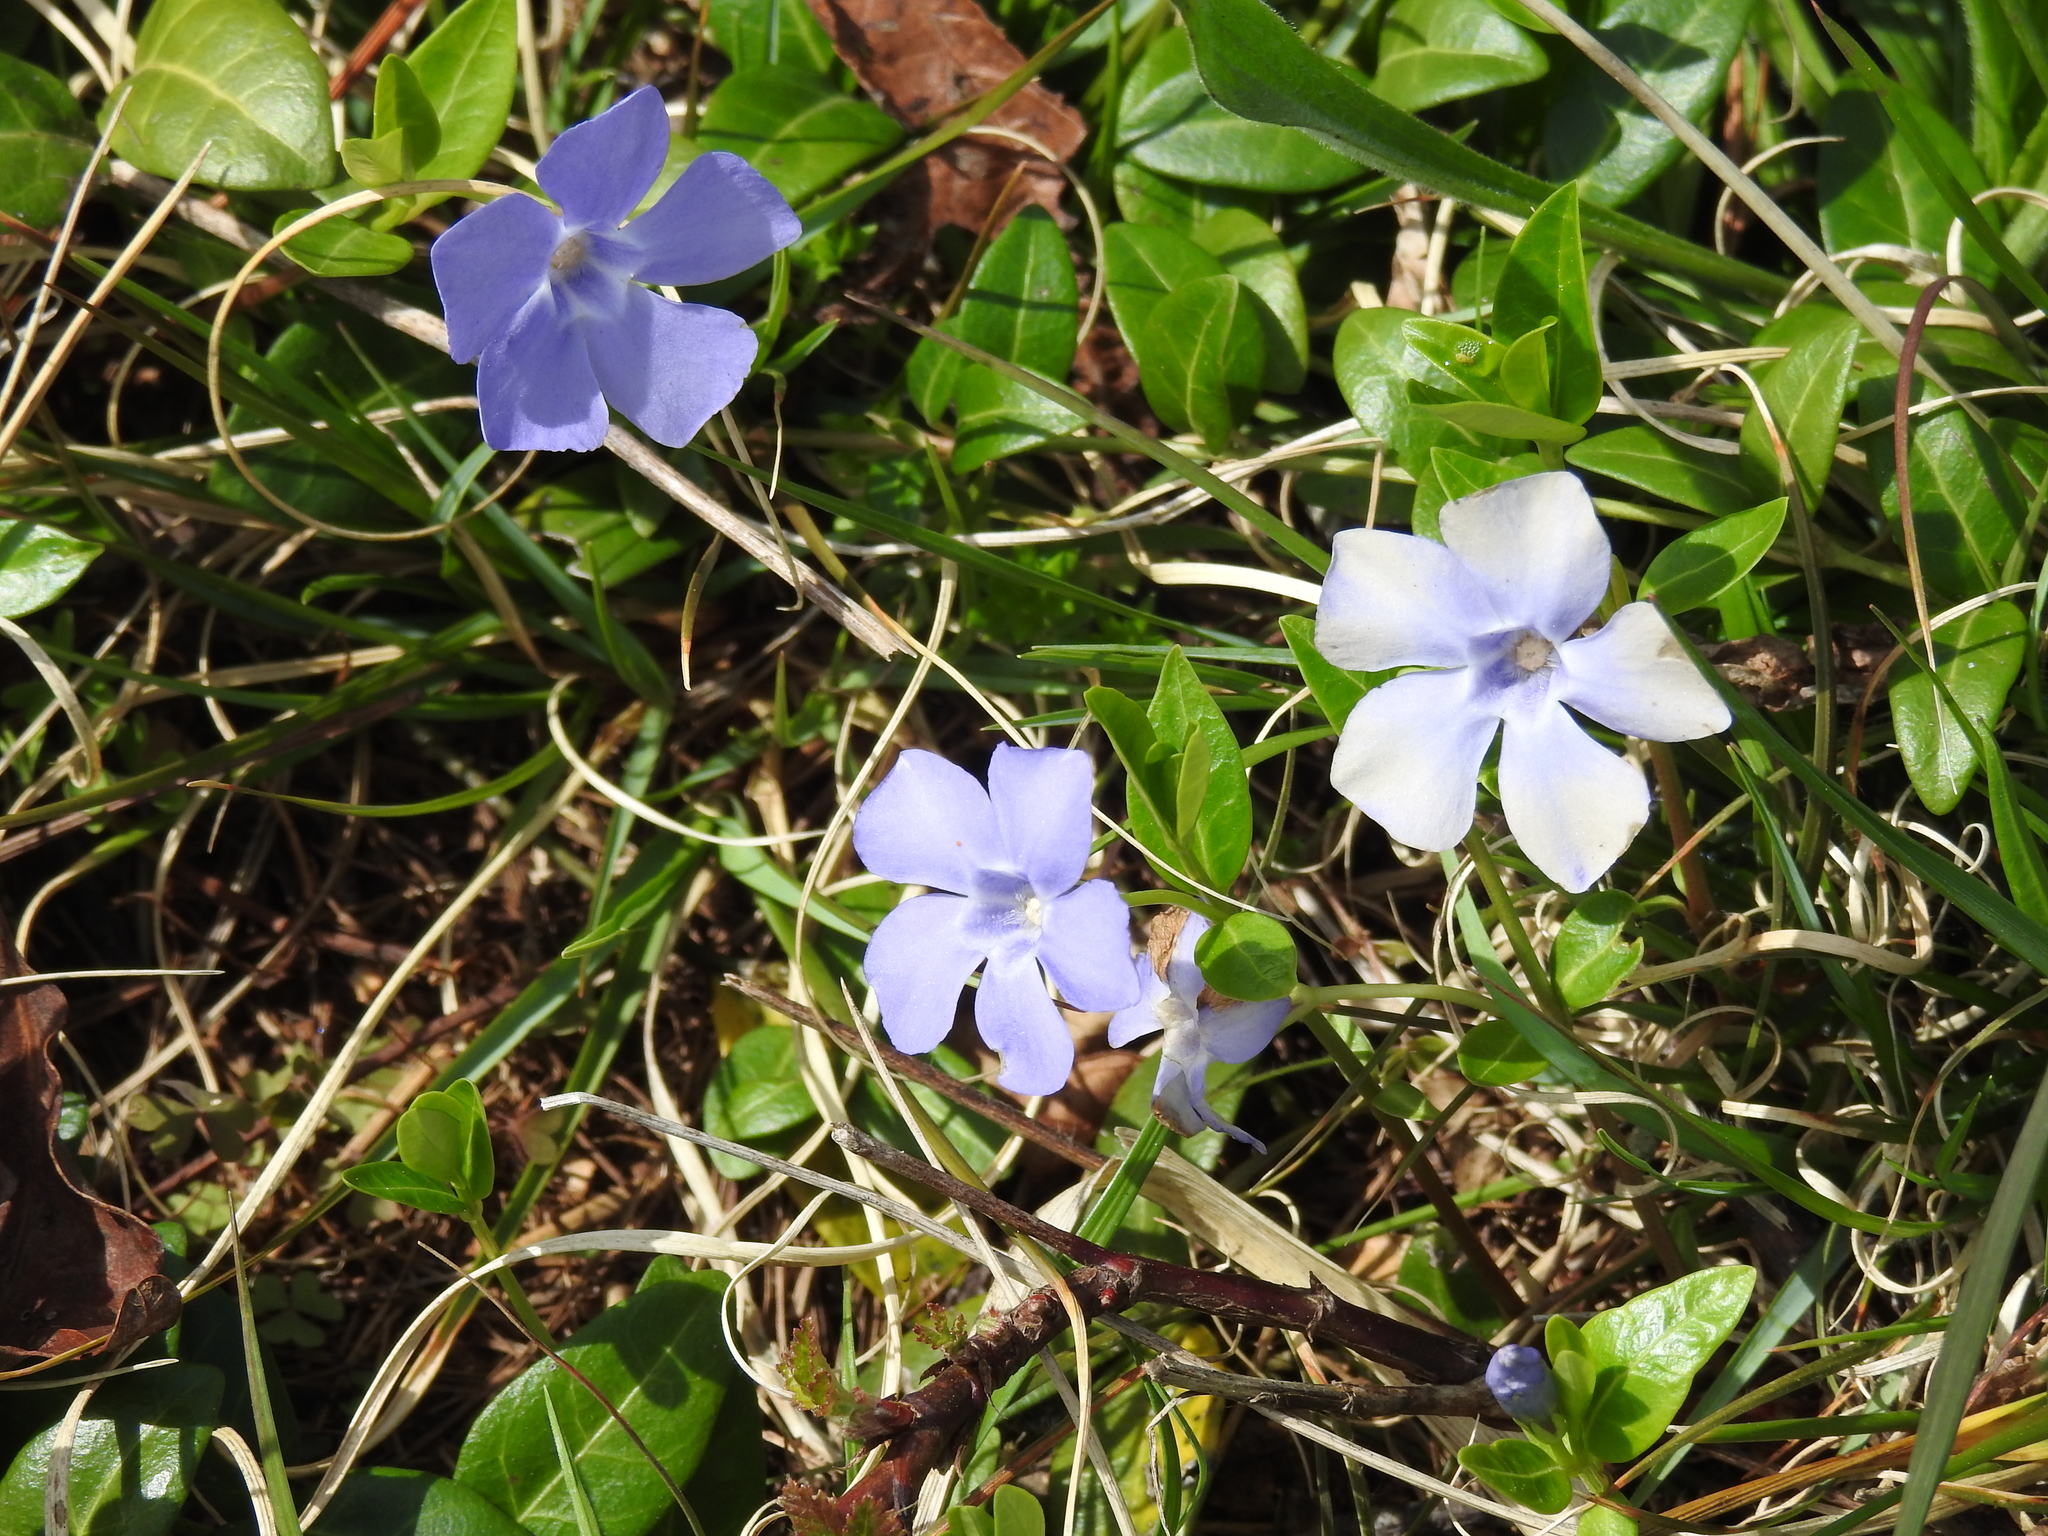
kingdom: Plantae
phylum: Tracheophyta
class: Magnoliopsida
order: Gentianales
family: Apocynaceae
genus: Vinca
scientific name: Vinca minor
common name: Lesser periwinkle
